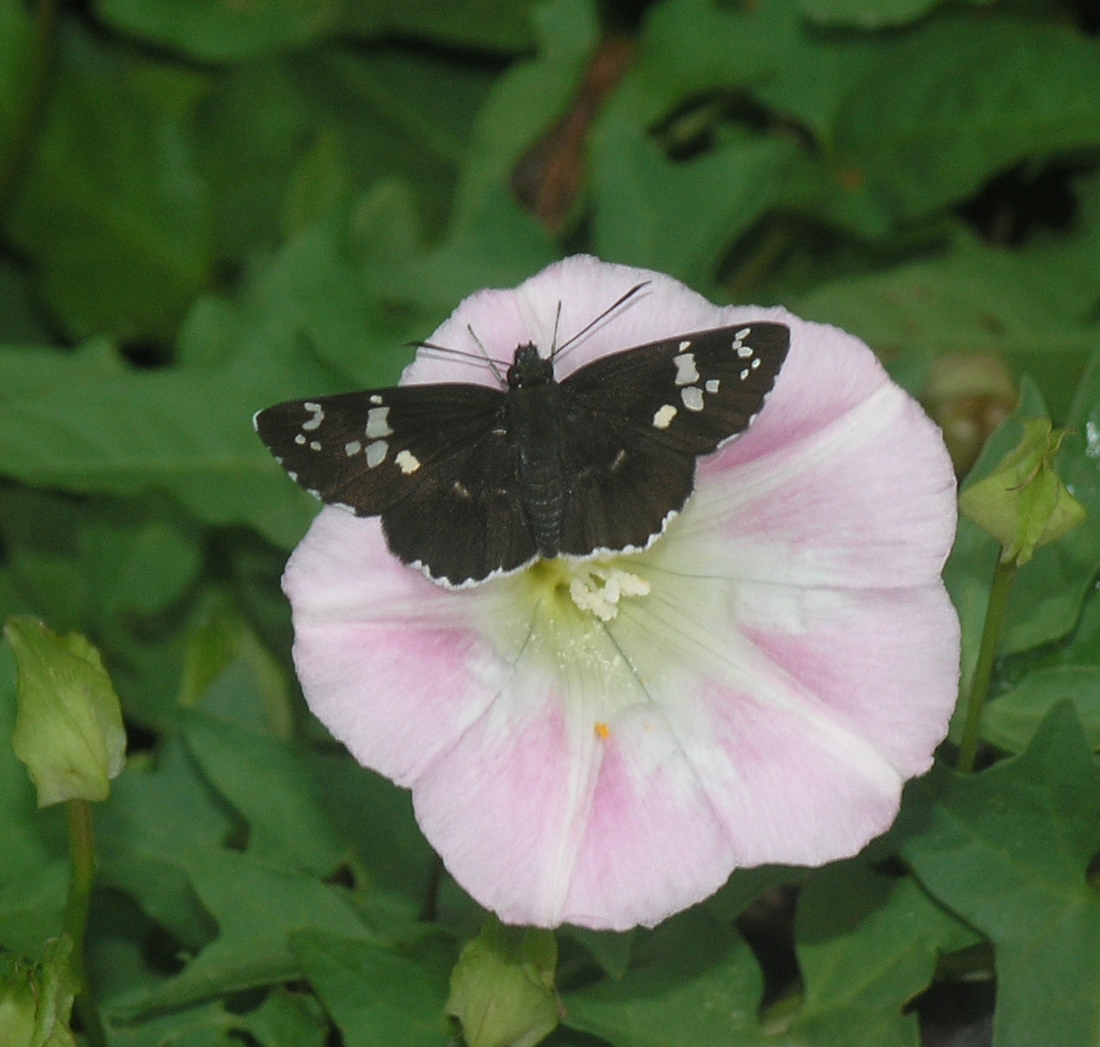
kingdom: Animalia
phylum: Arthropoda
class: Insecta
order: Lepidoptera
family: Hesperiidae
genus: Daimio
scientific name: Daimio tethys
